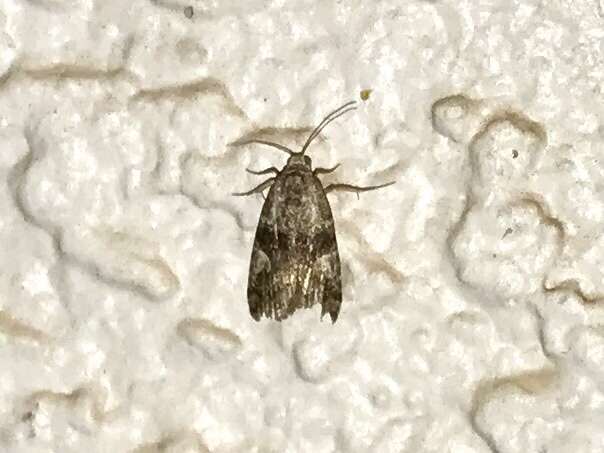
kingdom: Animalia
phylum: Arthropoda
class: Insecta
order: Lepidoptera
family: Noctuidae
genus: Metaponpneumata
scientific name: Metaponpneumata rogenhoferi
